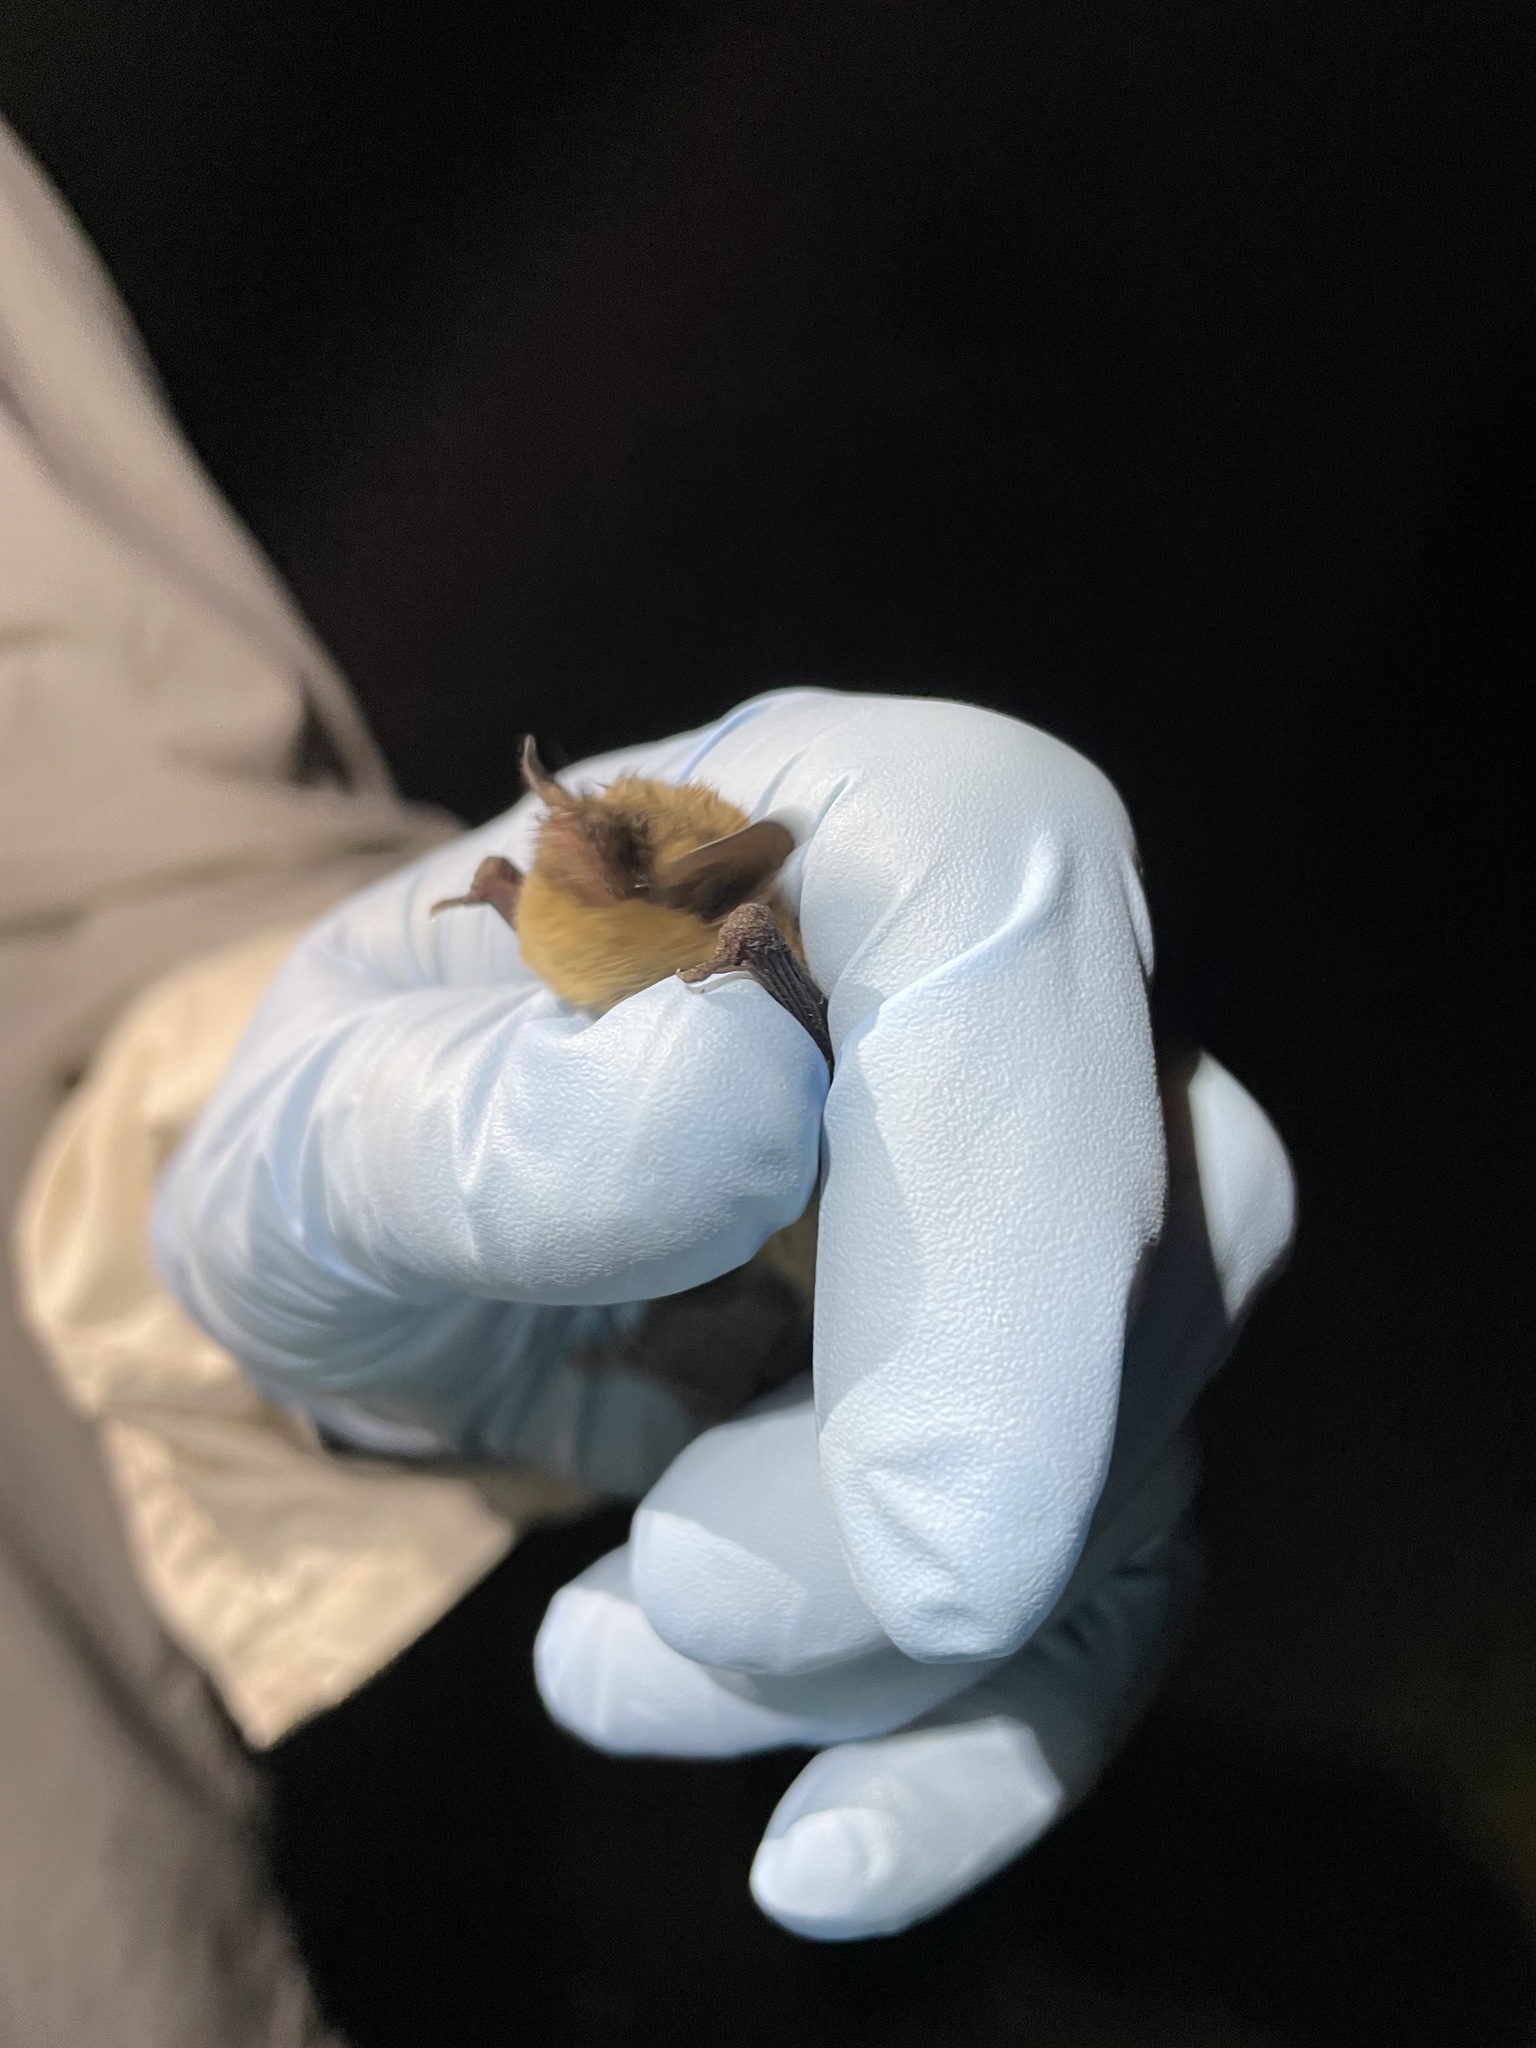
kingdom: Animalia
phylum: Chordata
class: Mammalia
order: Chiroptera
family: Vespertilionidae
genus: Myotis
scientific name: Myotis californicus
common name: Californian myotis
